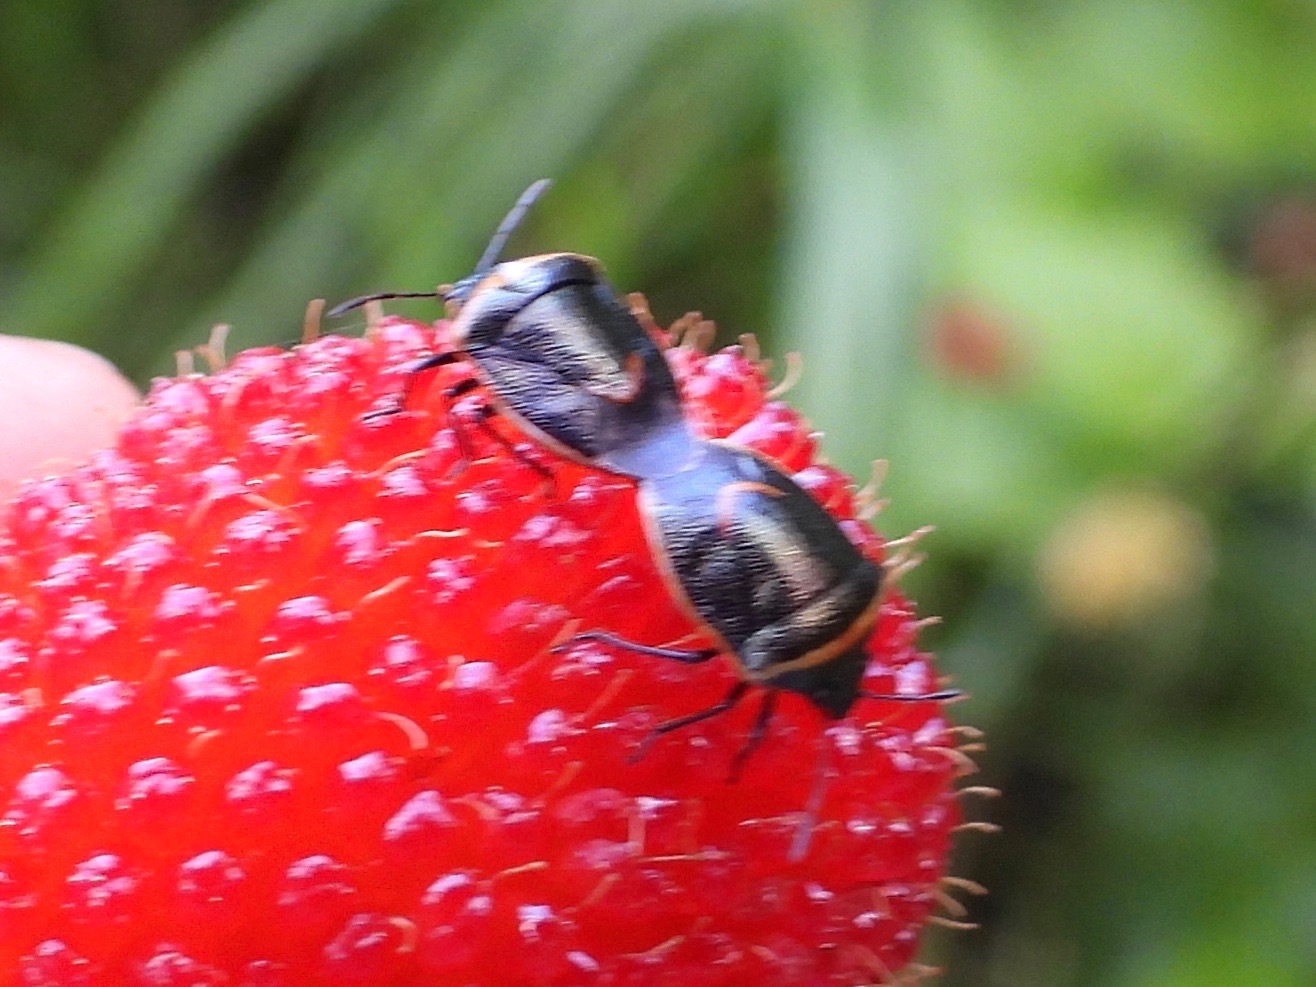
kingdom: Animalia
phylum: Arthropoda
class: Insecta
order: Hemiptera
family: Pentatomidae
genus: Cosmopepla
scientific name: Cosmopepla decorata
